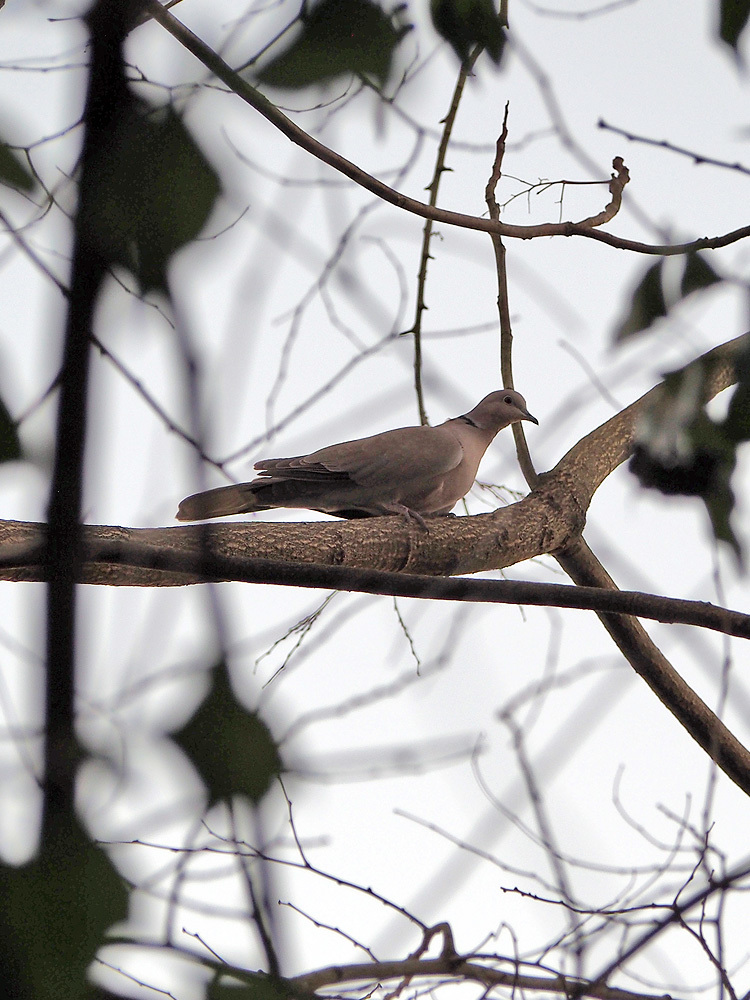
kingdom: Animalia
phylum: Chordata
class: Aves
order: Columbiformes
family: Columbidae
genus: Streptopelia
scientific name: Streptopelia decaocto
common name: Eurasian collared dove
